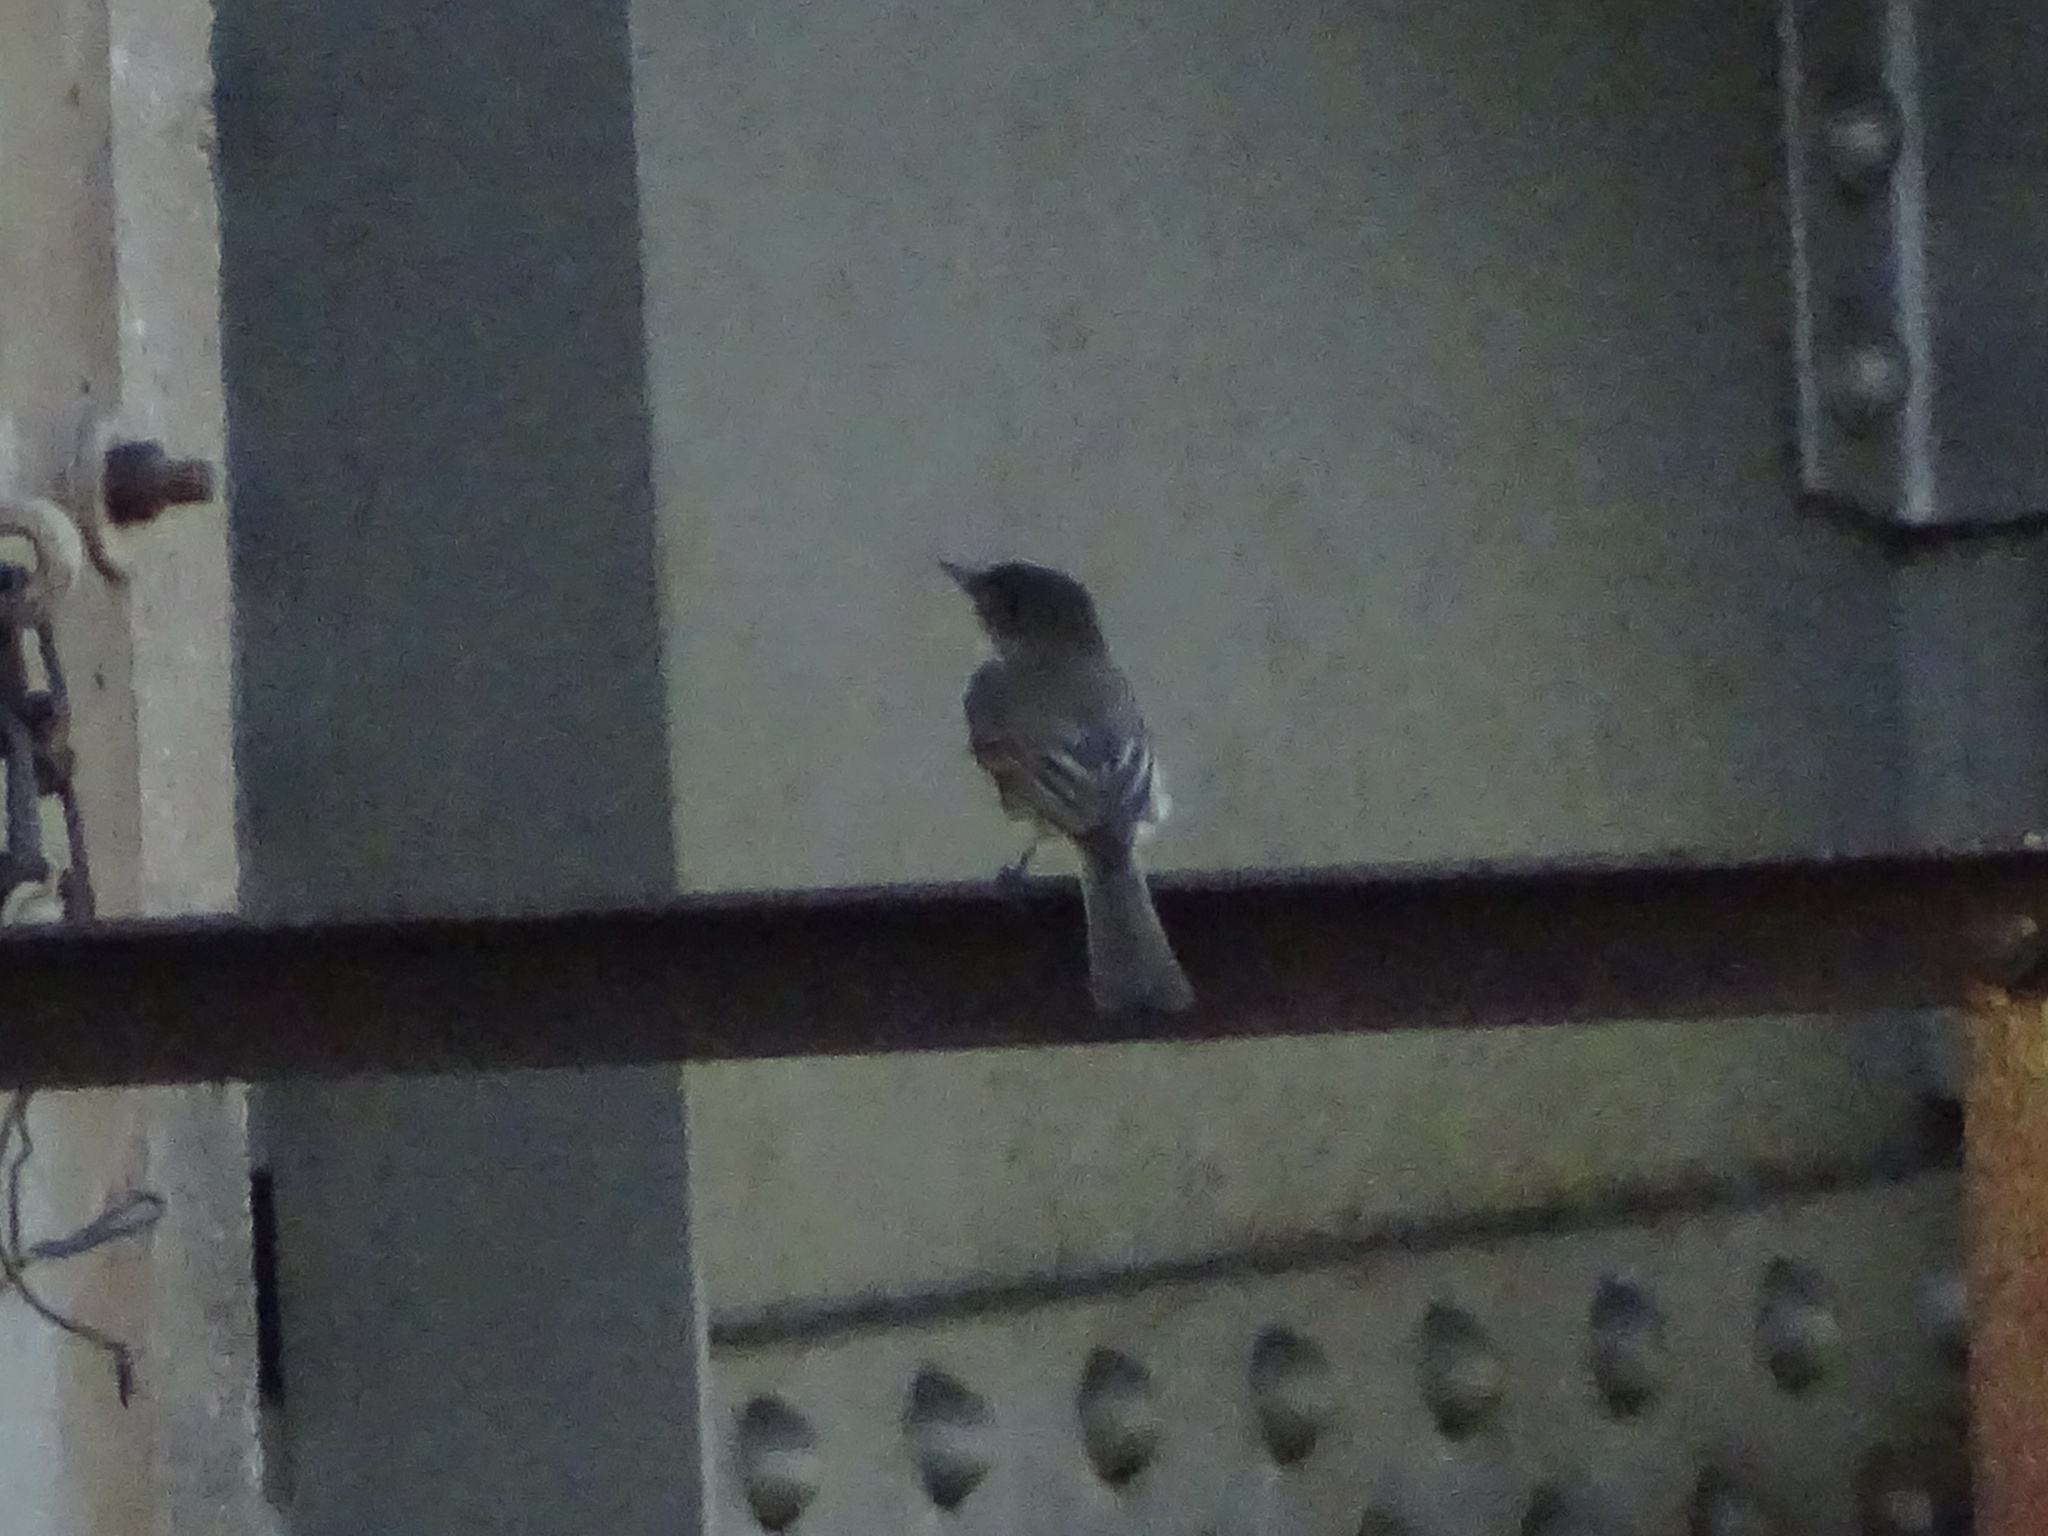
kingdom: Animalia
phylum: Chordata
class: Aves
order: Passeriformes
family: Tyrannidae
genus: Sayornis
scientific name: Sayornis phoebe
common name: Eastern phoebe
